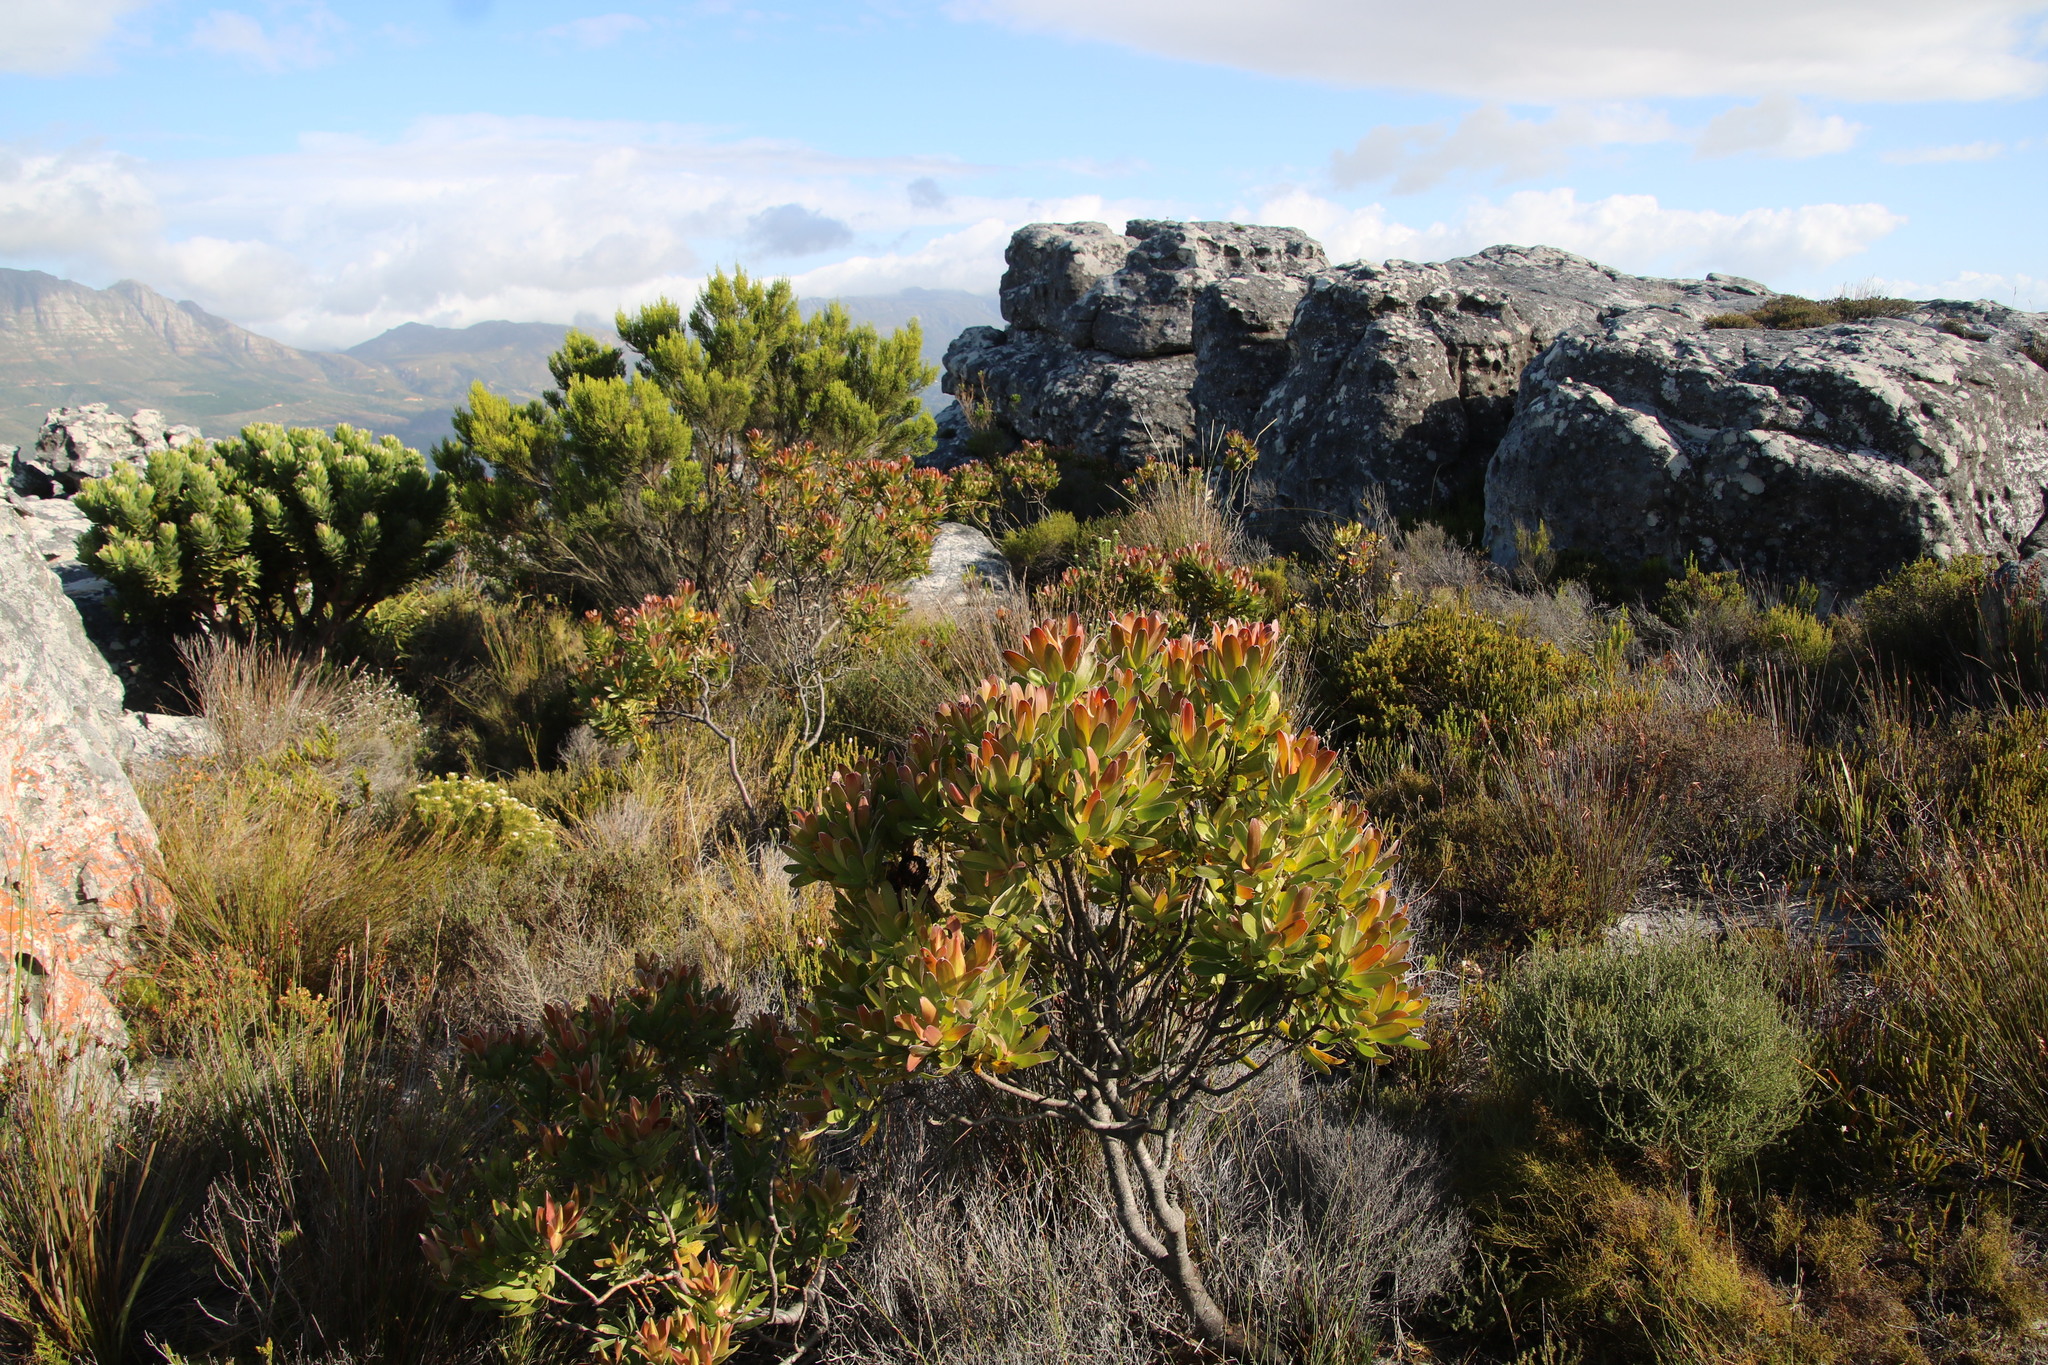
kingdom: Plantae
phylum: Tracheophyta
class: Magnoliopsida
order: Proteales
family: Proteaceae
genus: Leucadendron
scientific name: Leucadendron laureolum
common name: Golden sunshinebush
